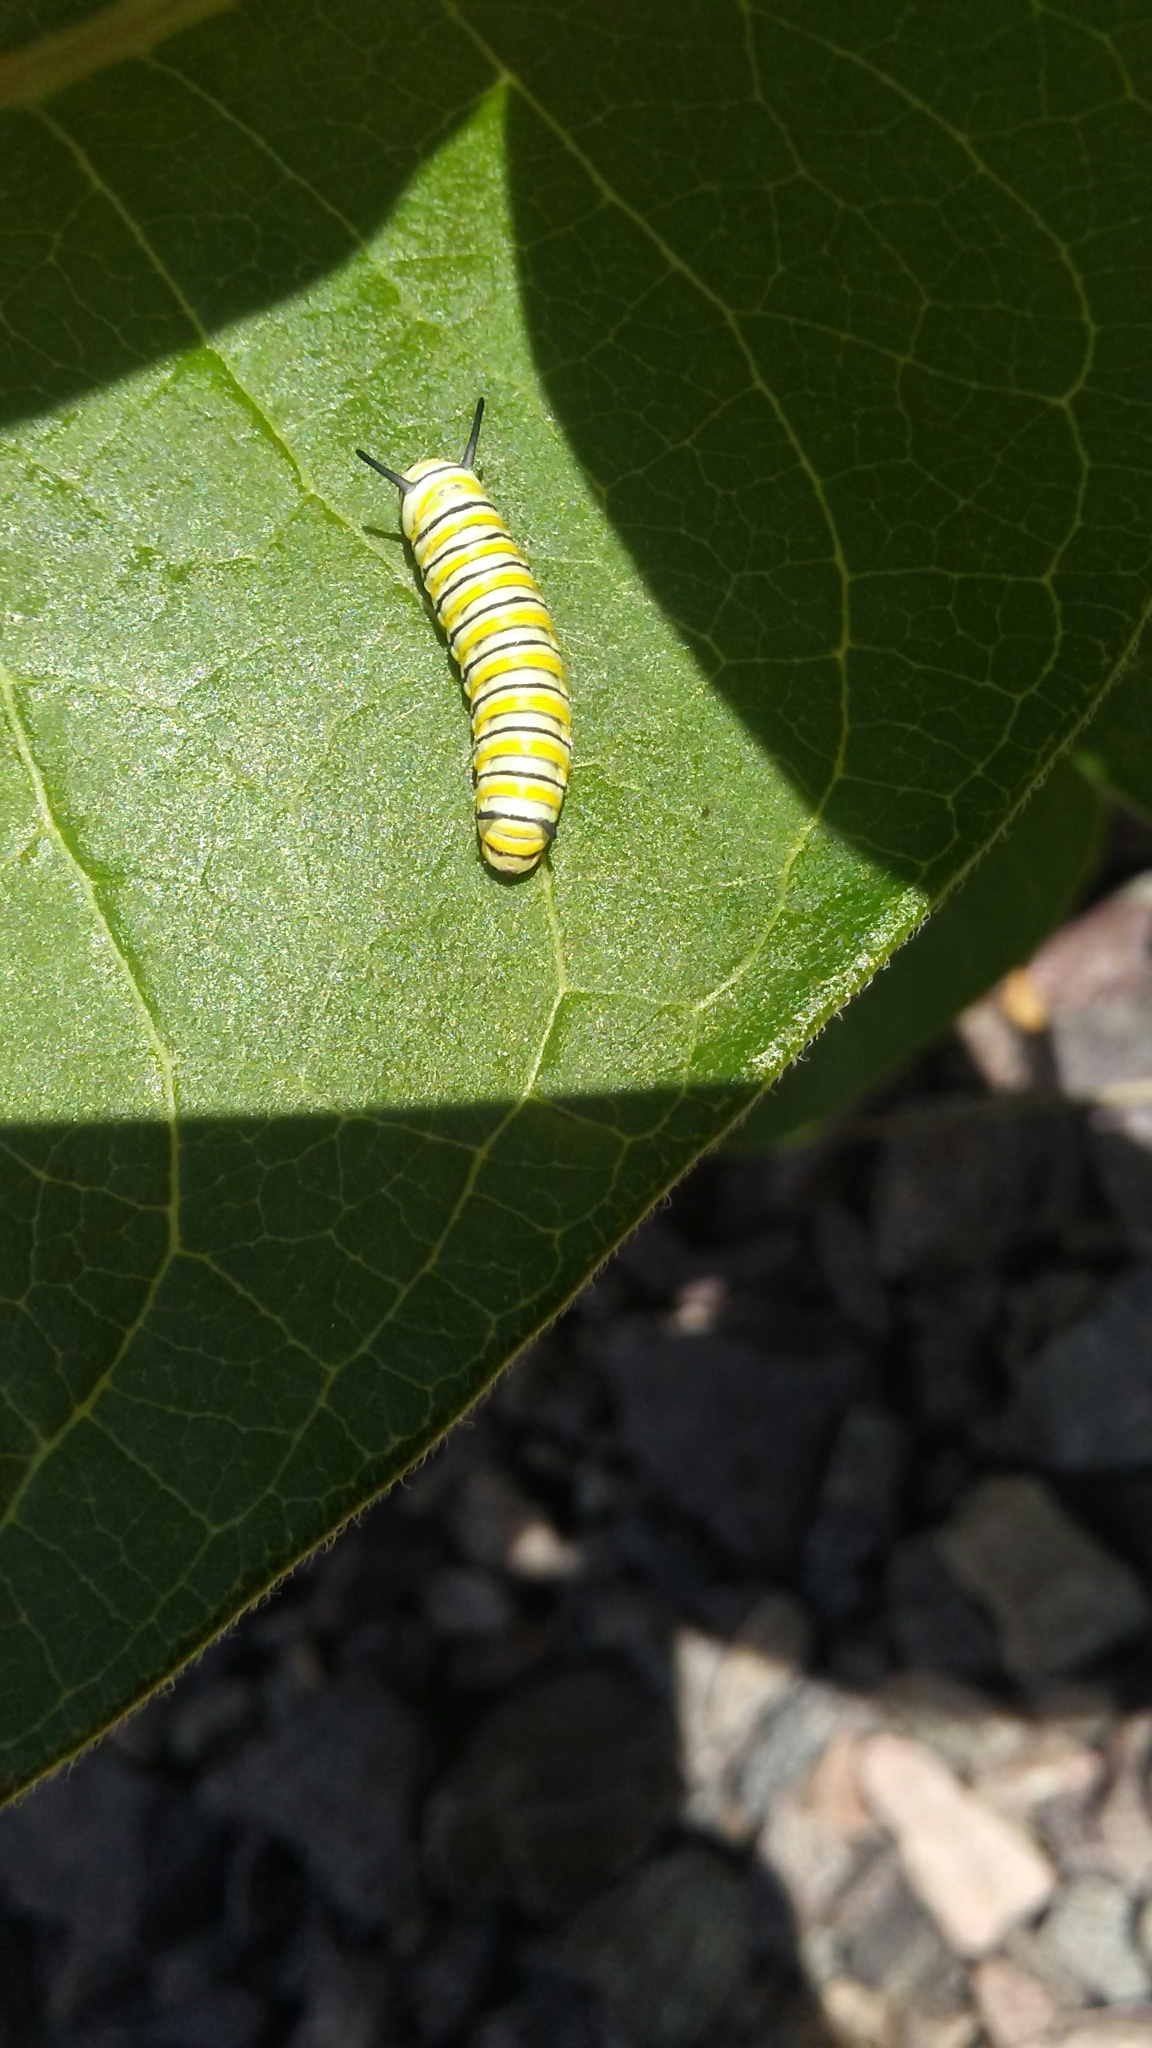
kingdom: Animalia
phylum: Arthropoda
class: Insecta
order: Lepidoptera
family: Nymphalidae
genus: Danaus
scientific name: Danaus plexippus
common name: Monarch
